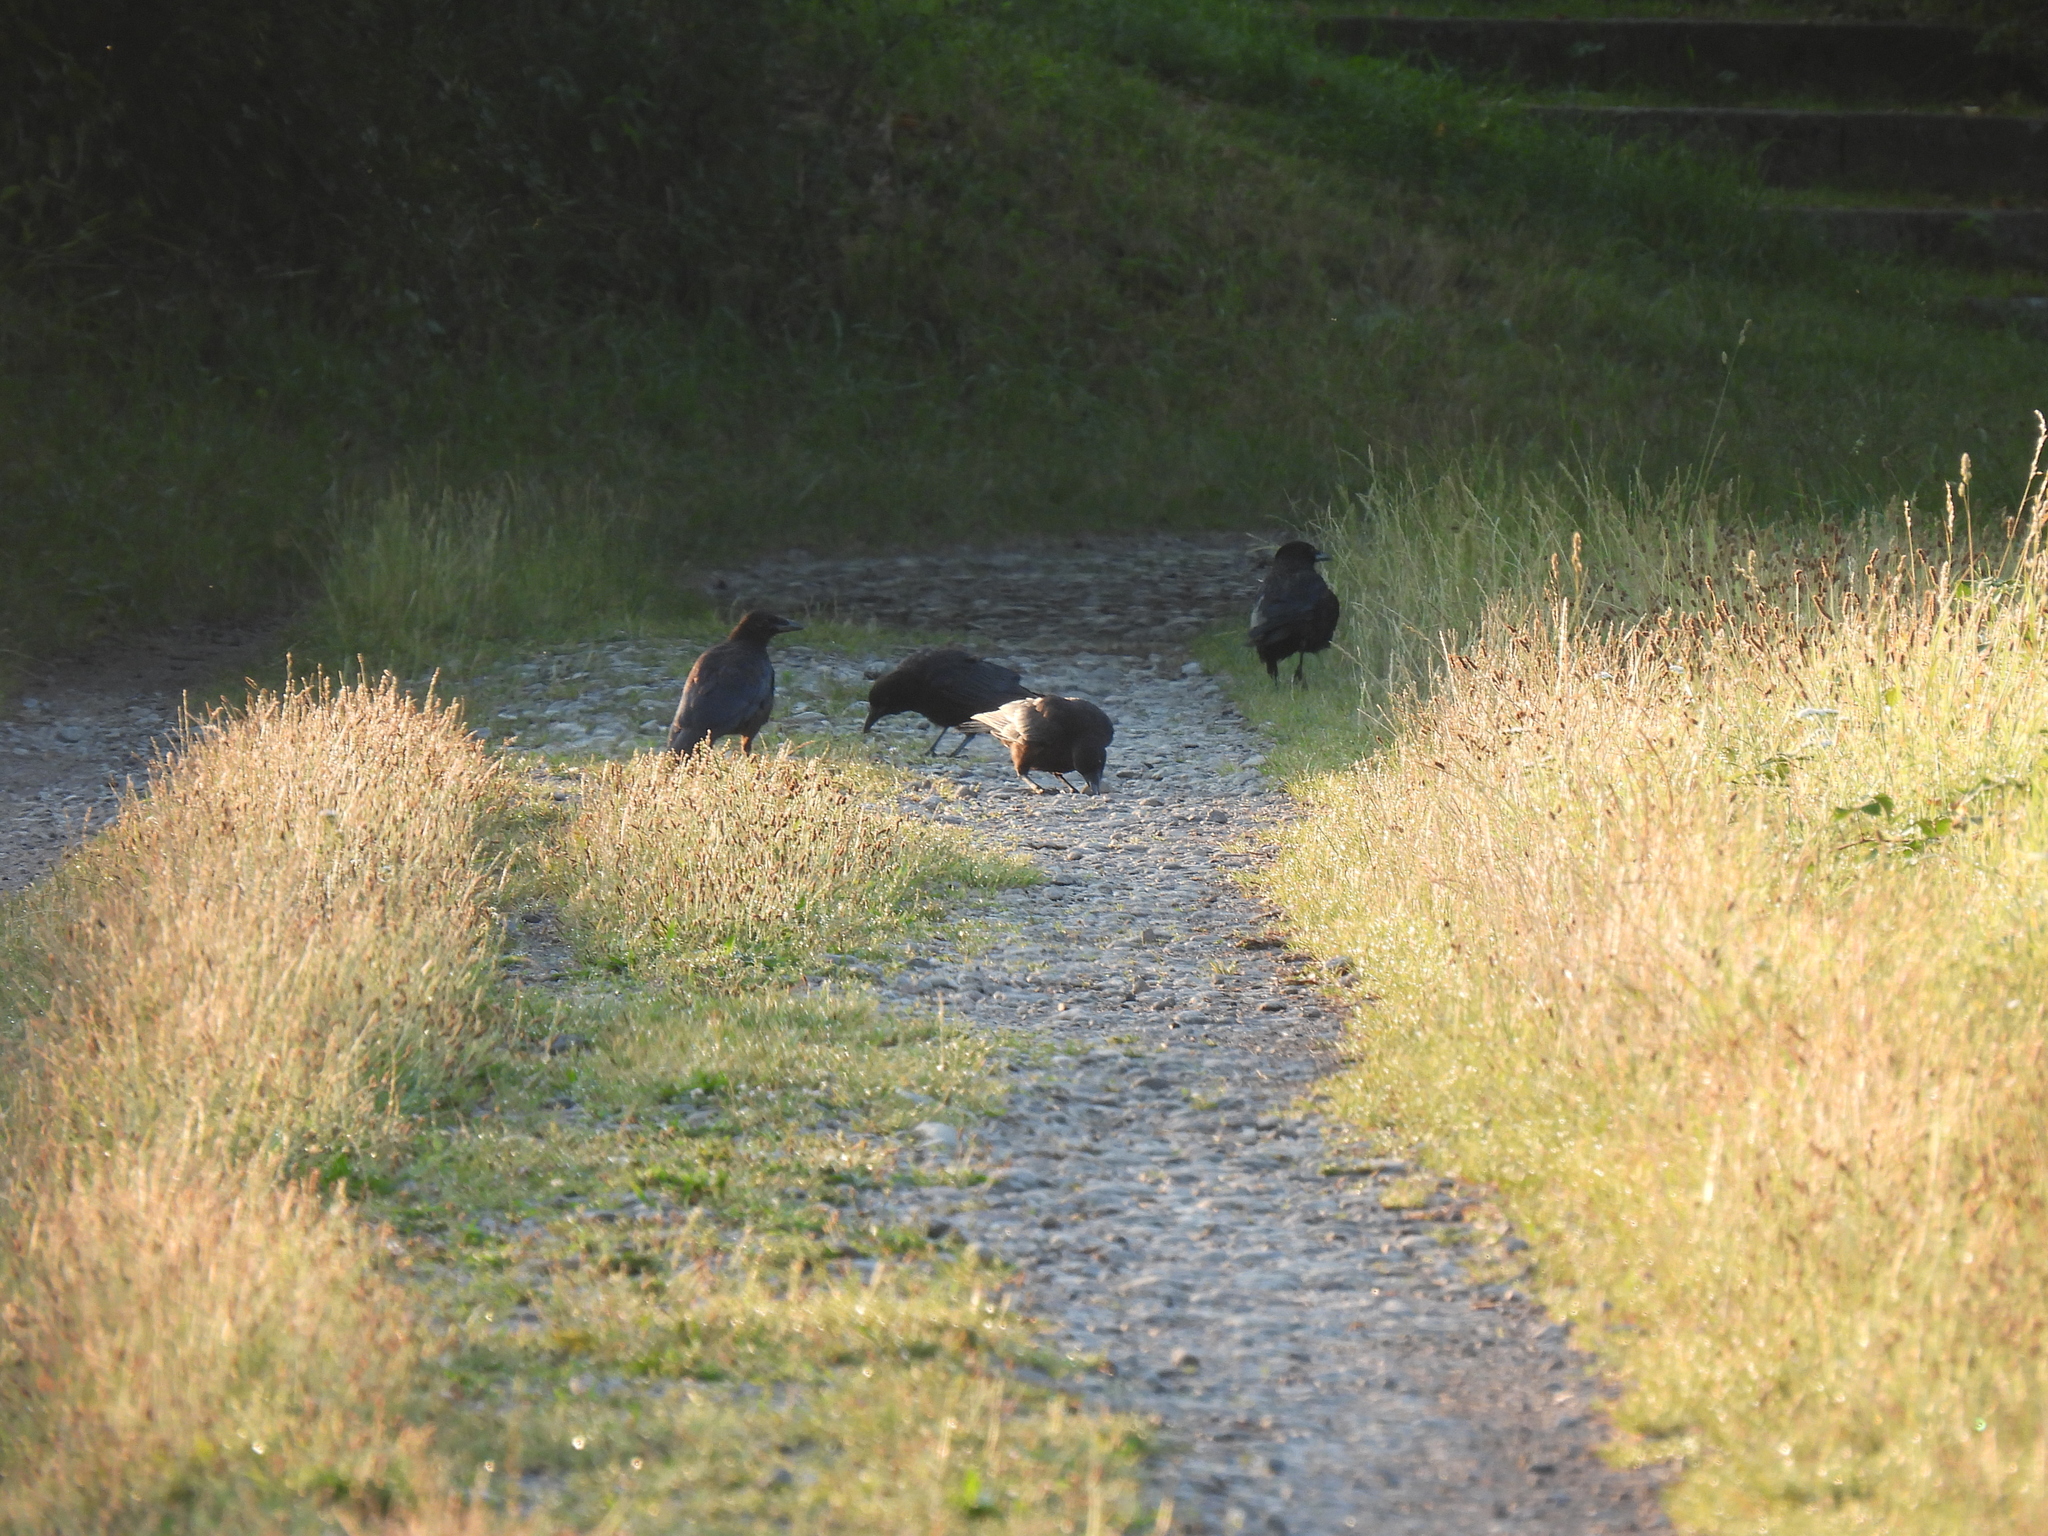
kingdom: Animalia
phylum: Chordata
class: Aves
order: Passeriformes
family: Corvidae
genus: Corvus
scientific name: Corvus corone
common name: Carrion crow
